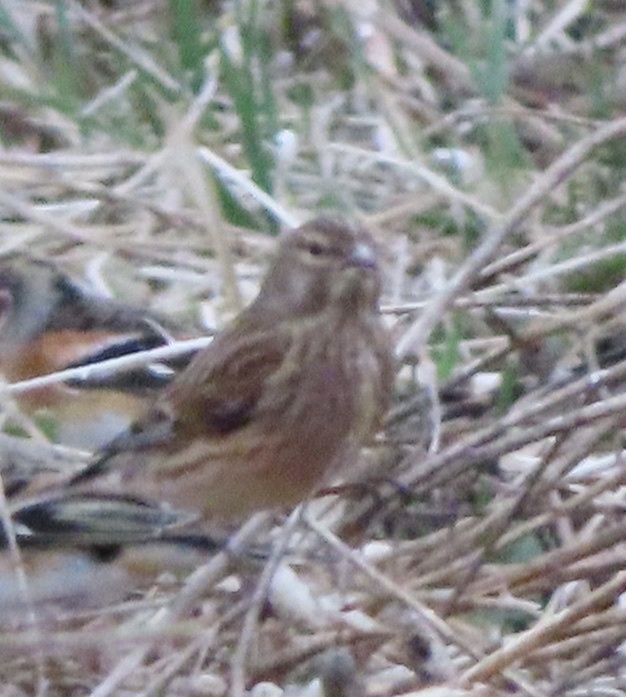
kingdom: Animalia
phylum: Chordata
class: Aves
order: Passeriformes
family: Fringillidae
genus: Linaria
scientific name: Linaria cannabina
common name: Common linnet
